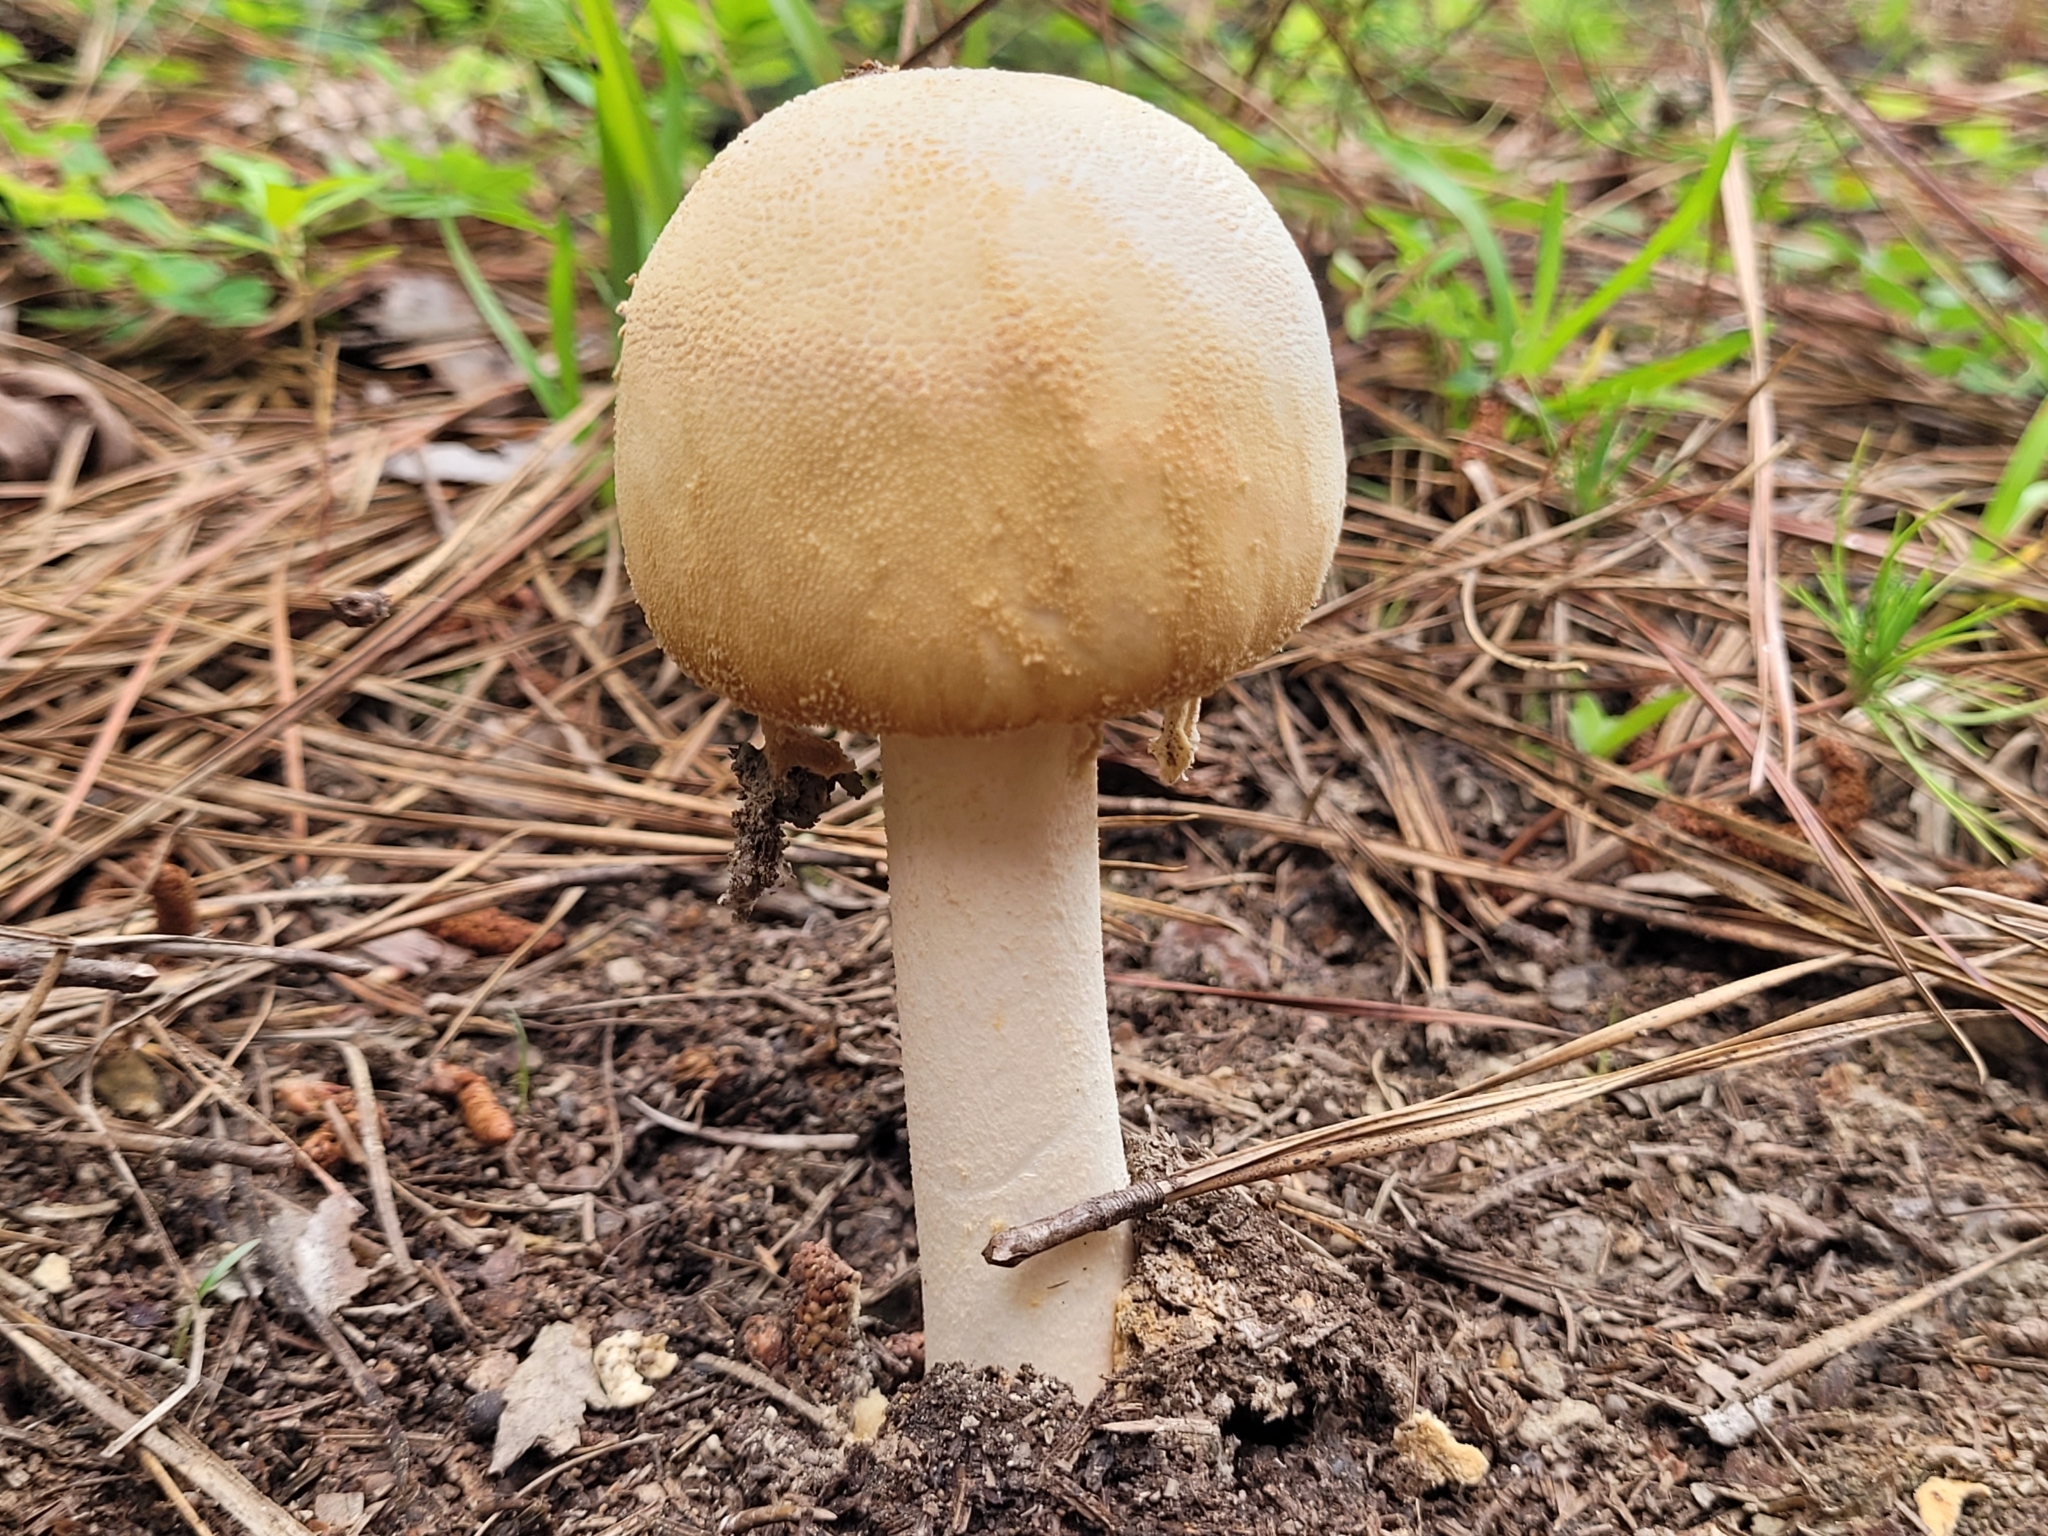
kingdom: Fungi
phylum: Basidiomycota
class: Agaricomycetes
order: Agaricales
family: Amanitaceae
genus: Amanita
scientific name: Amanita roseotincta
